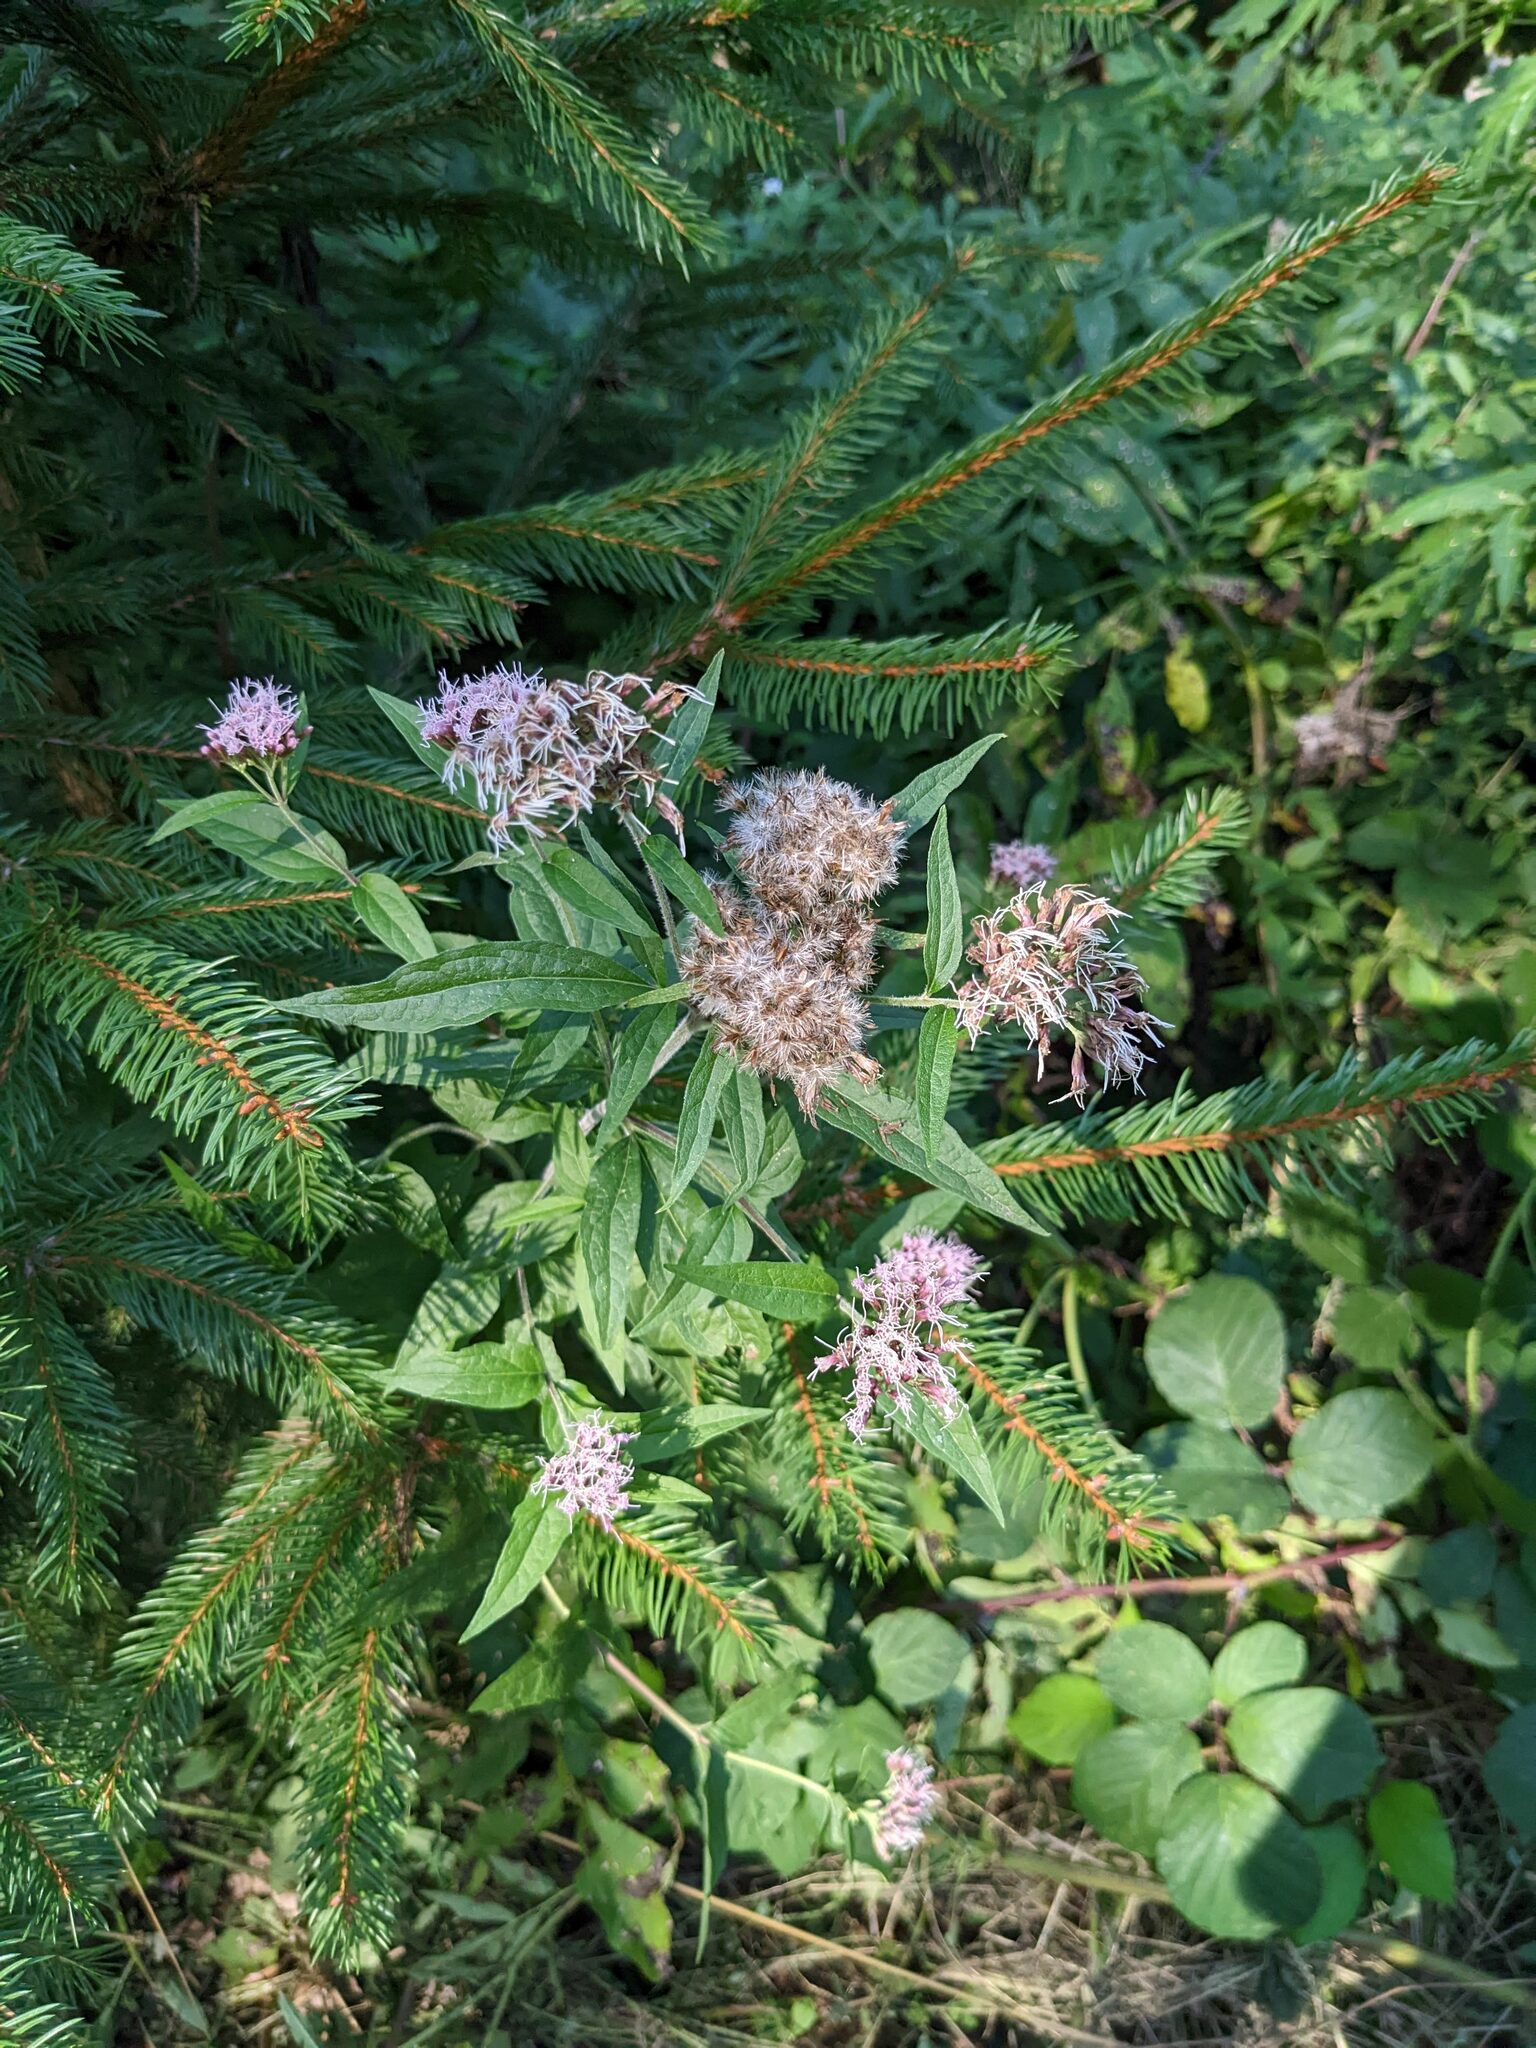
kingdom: Plantae
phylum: Tracheophyta
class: Magnoliopsida
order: Asterales
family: Asteraceae
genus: Eupatorium
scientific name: Eupatorium cannabinum
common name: Hemp-agrimony
